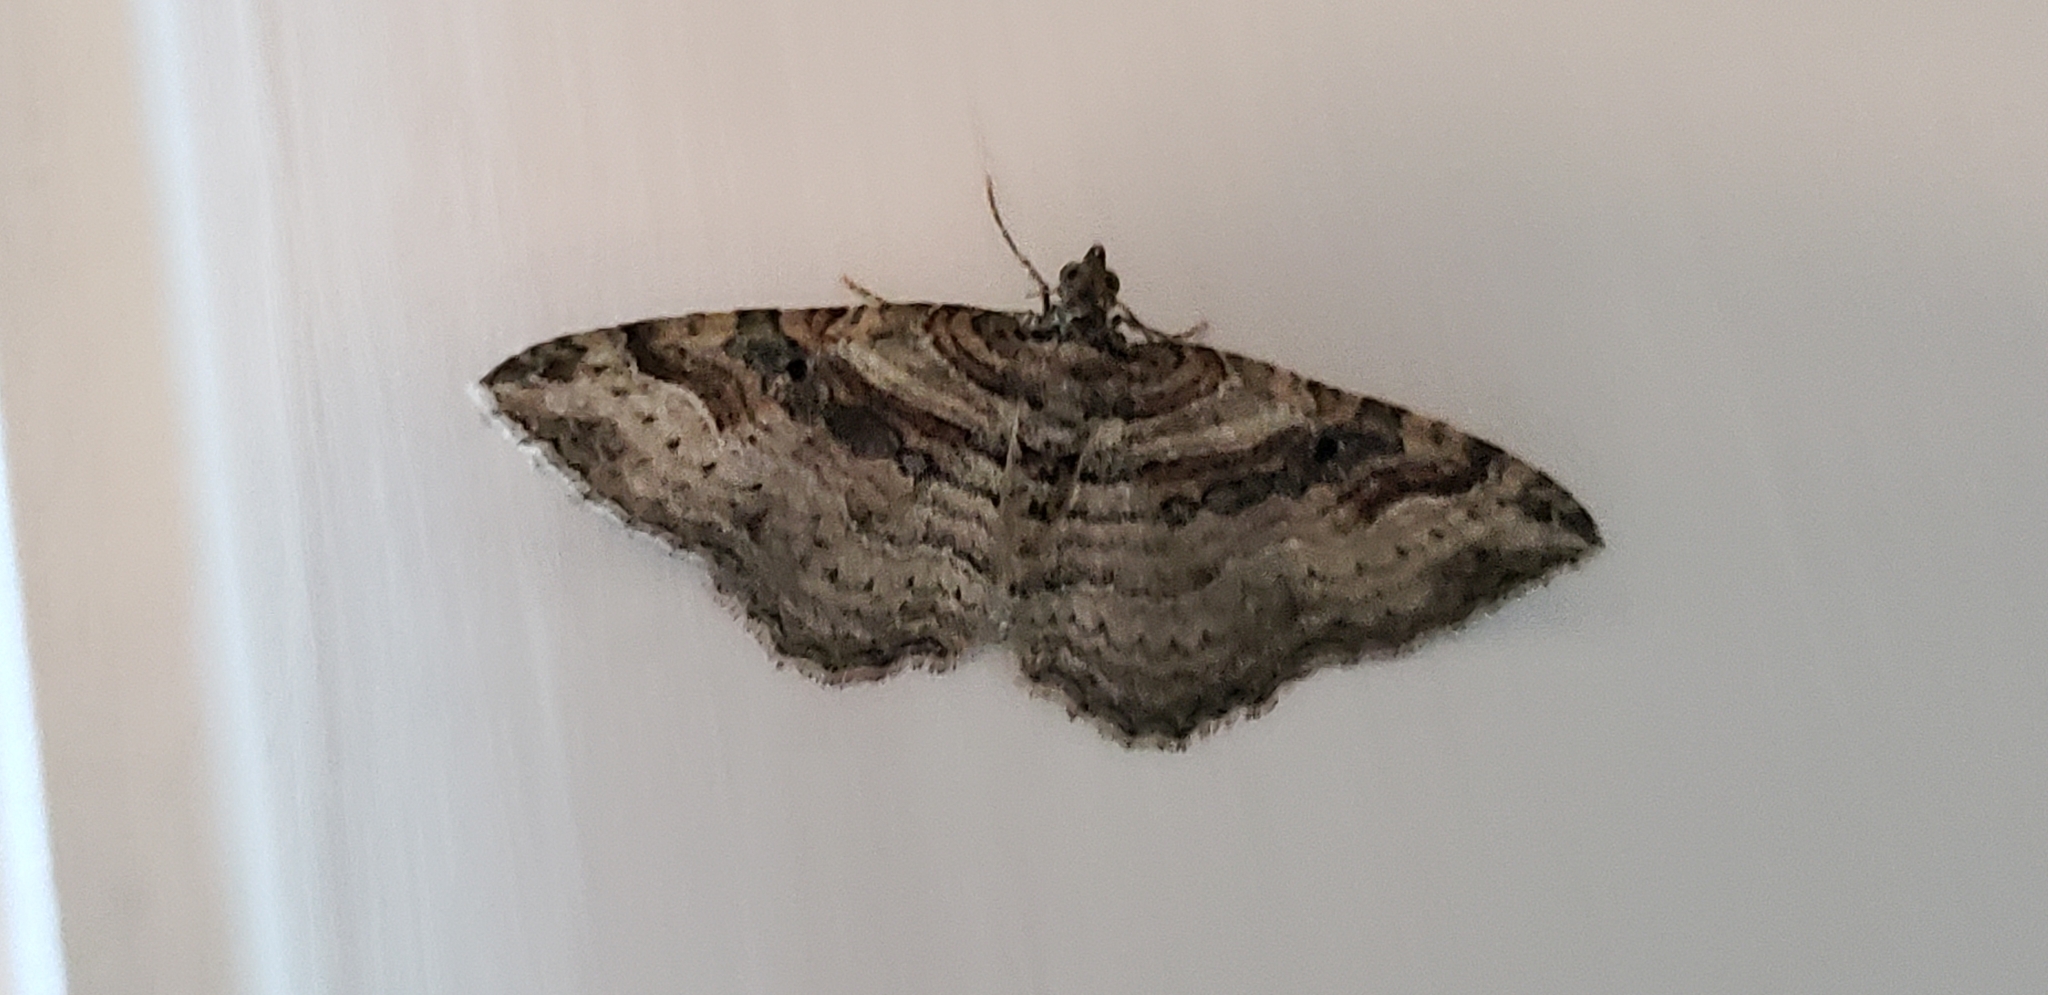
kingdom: Animalia
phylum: Arthropoda
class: Insecta
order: Lepidoptera
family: Geometridae
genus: Costaconvexa
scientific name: Costaconvexa centrostrigaria
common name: Bent-line carpet
